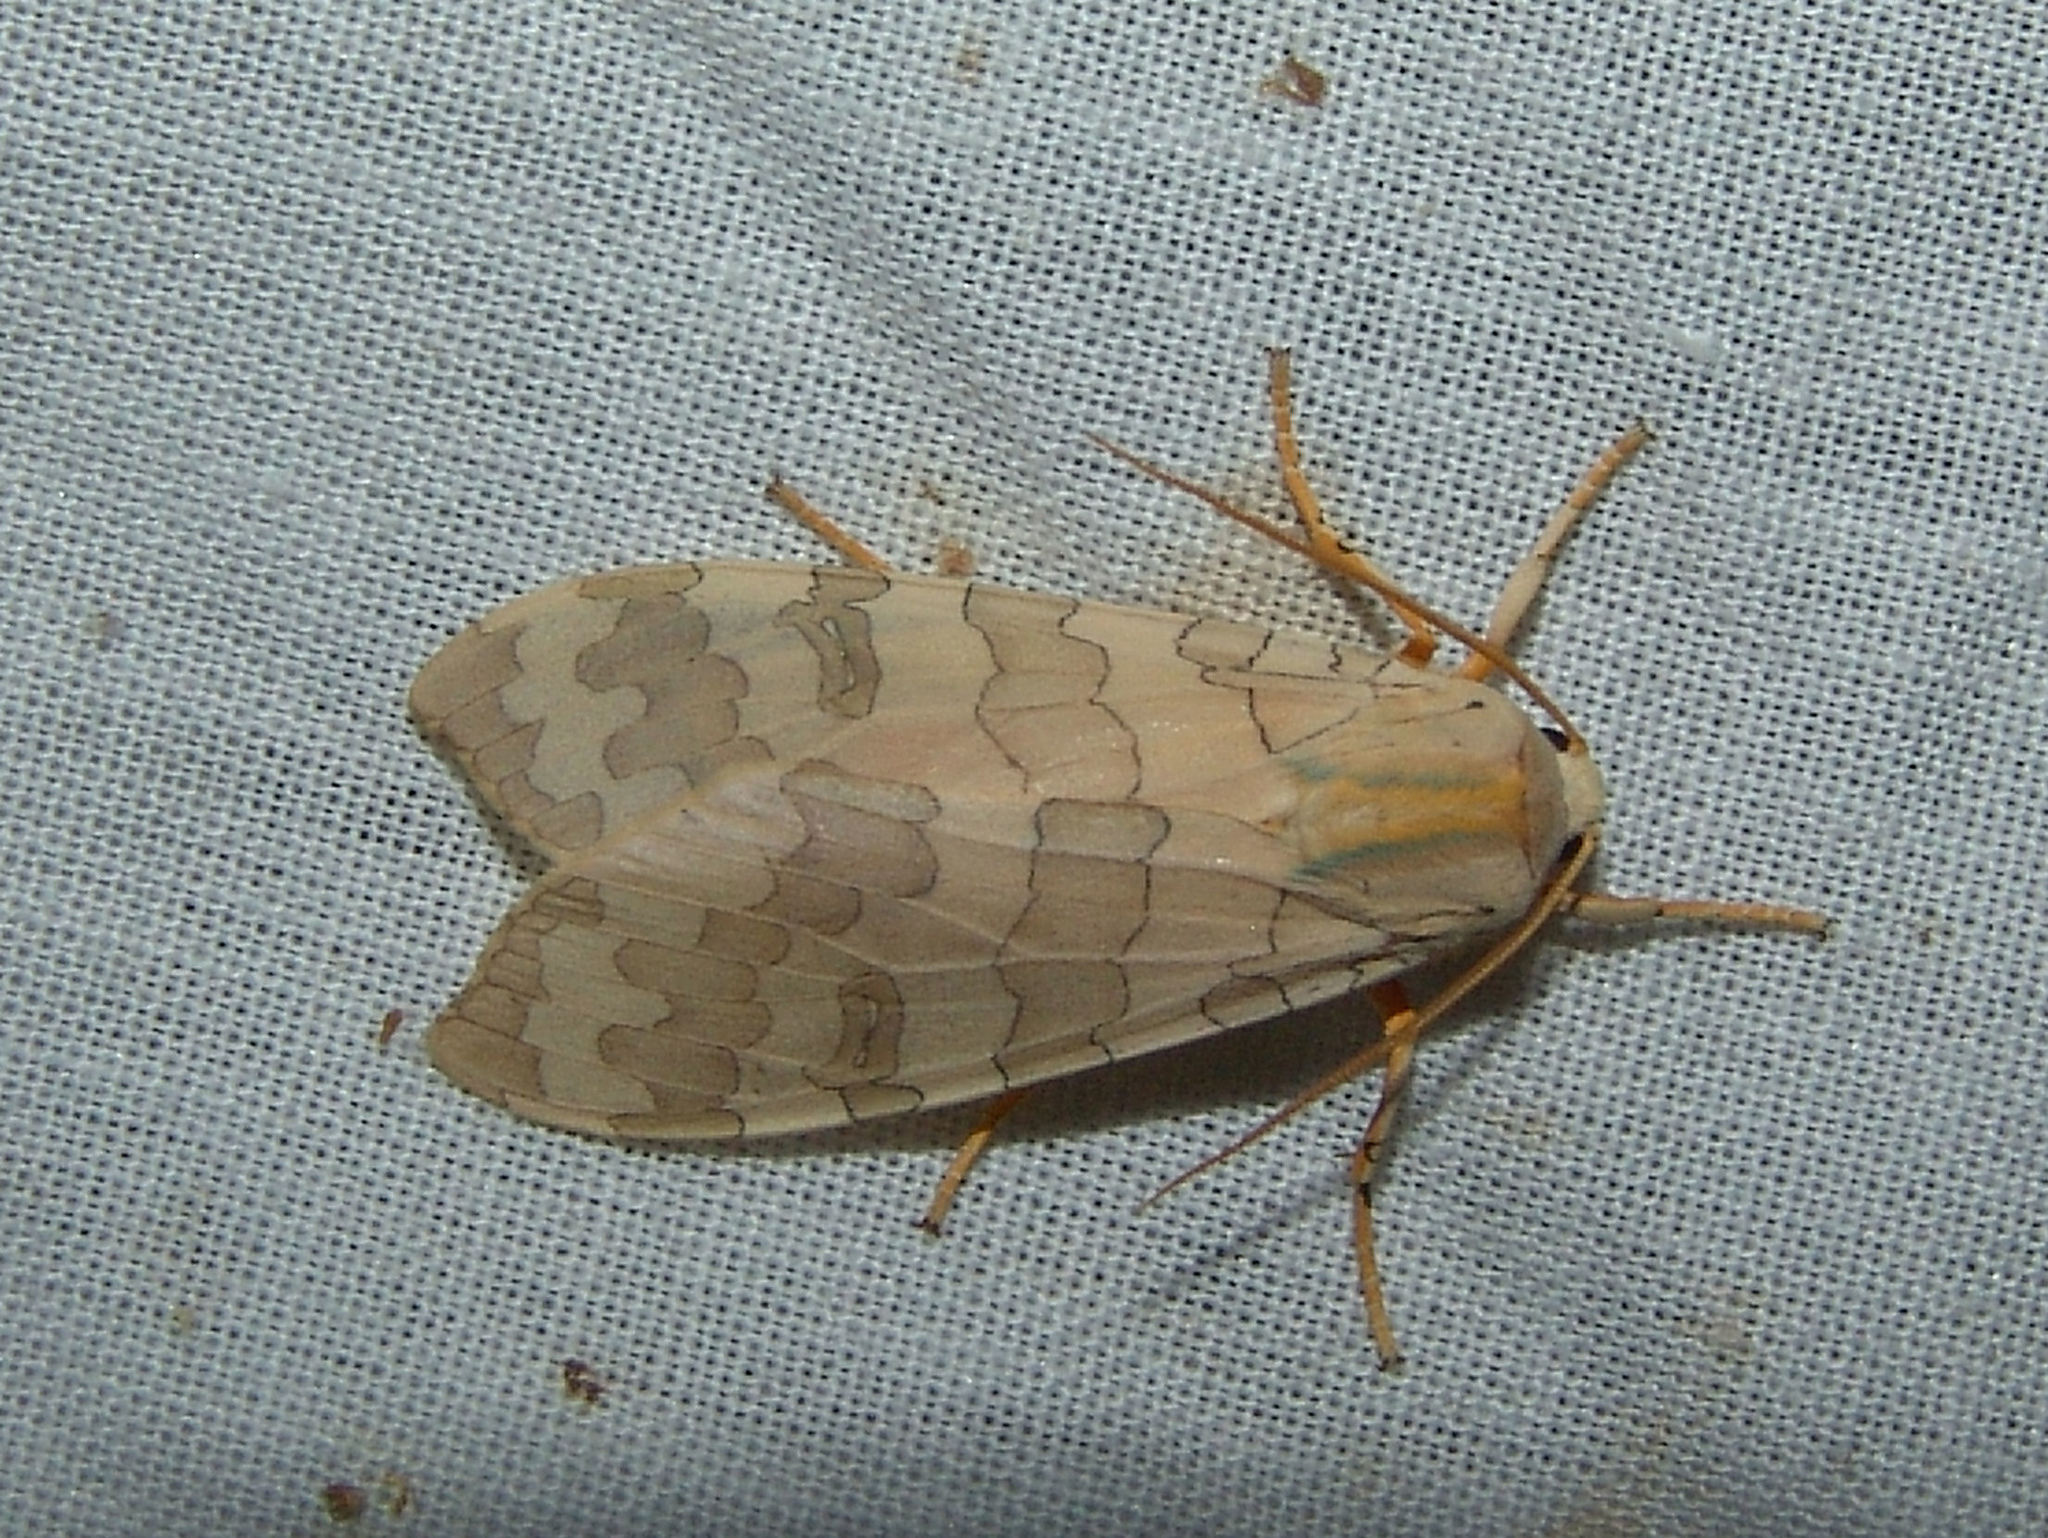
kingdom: Animalia
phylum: Arthropoda
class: Insecta
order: Lepidoptera
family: Erebidae
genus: Halysidota
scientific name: Halysidota
